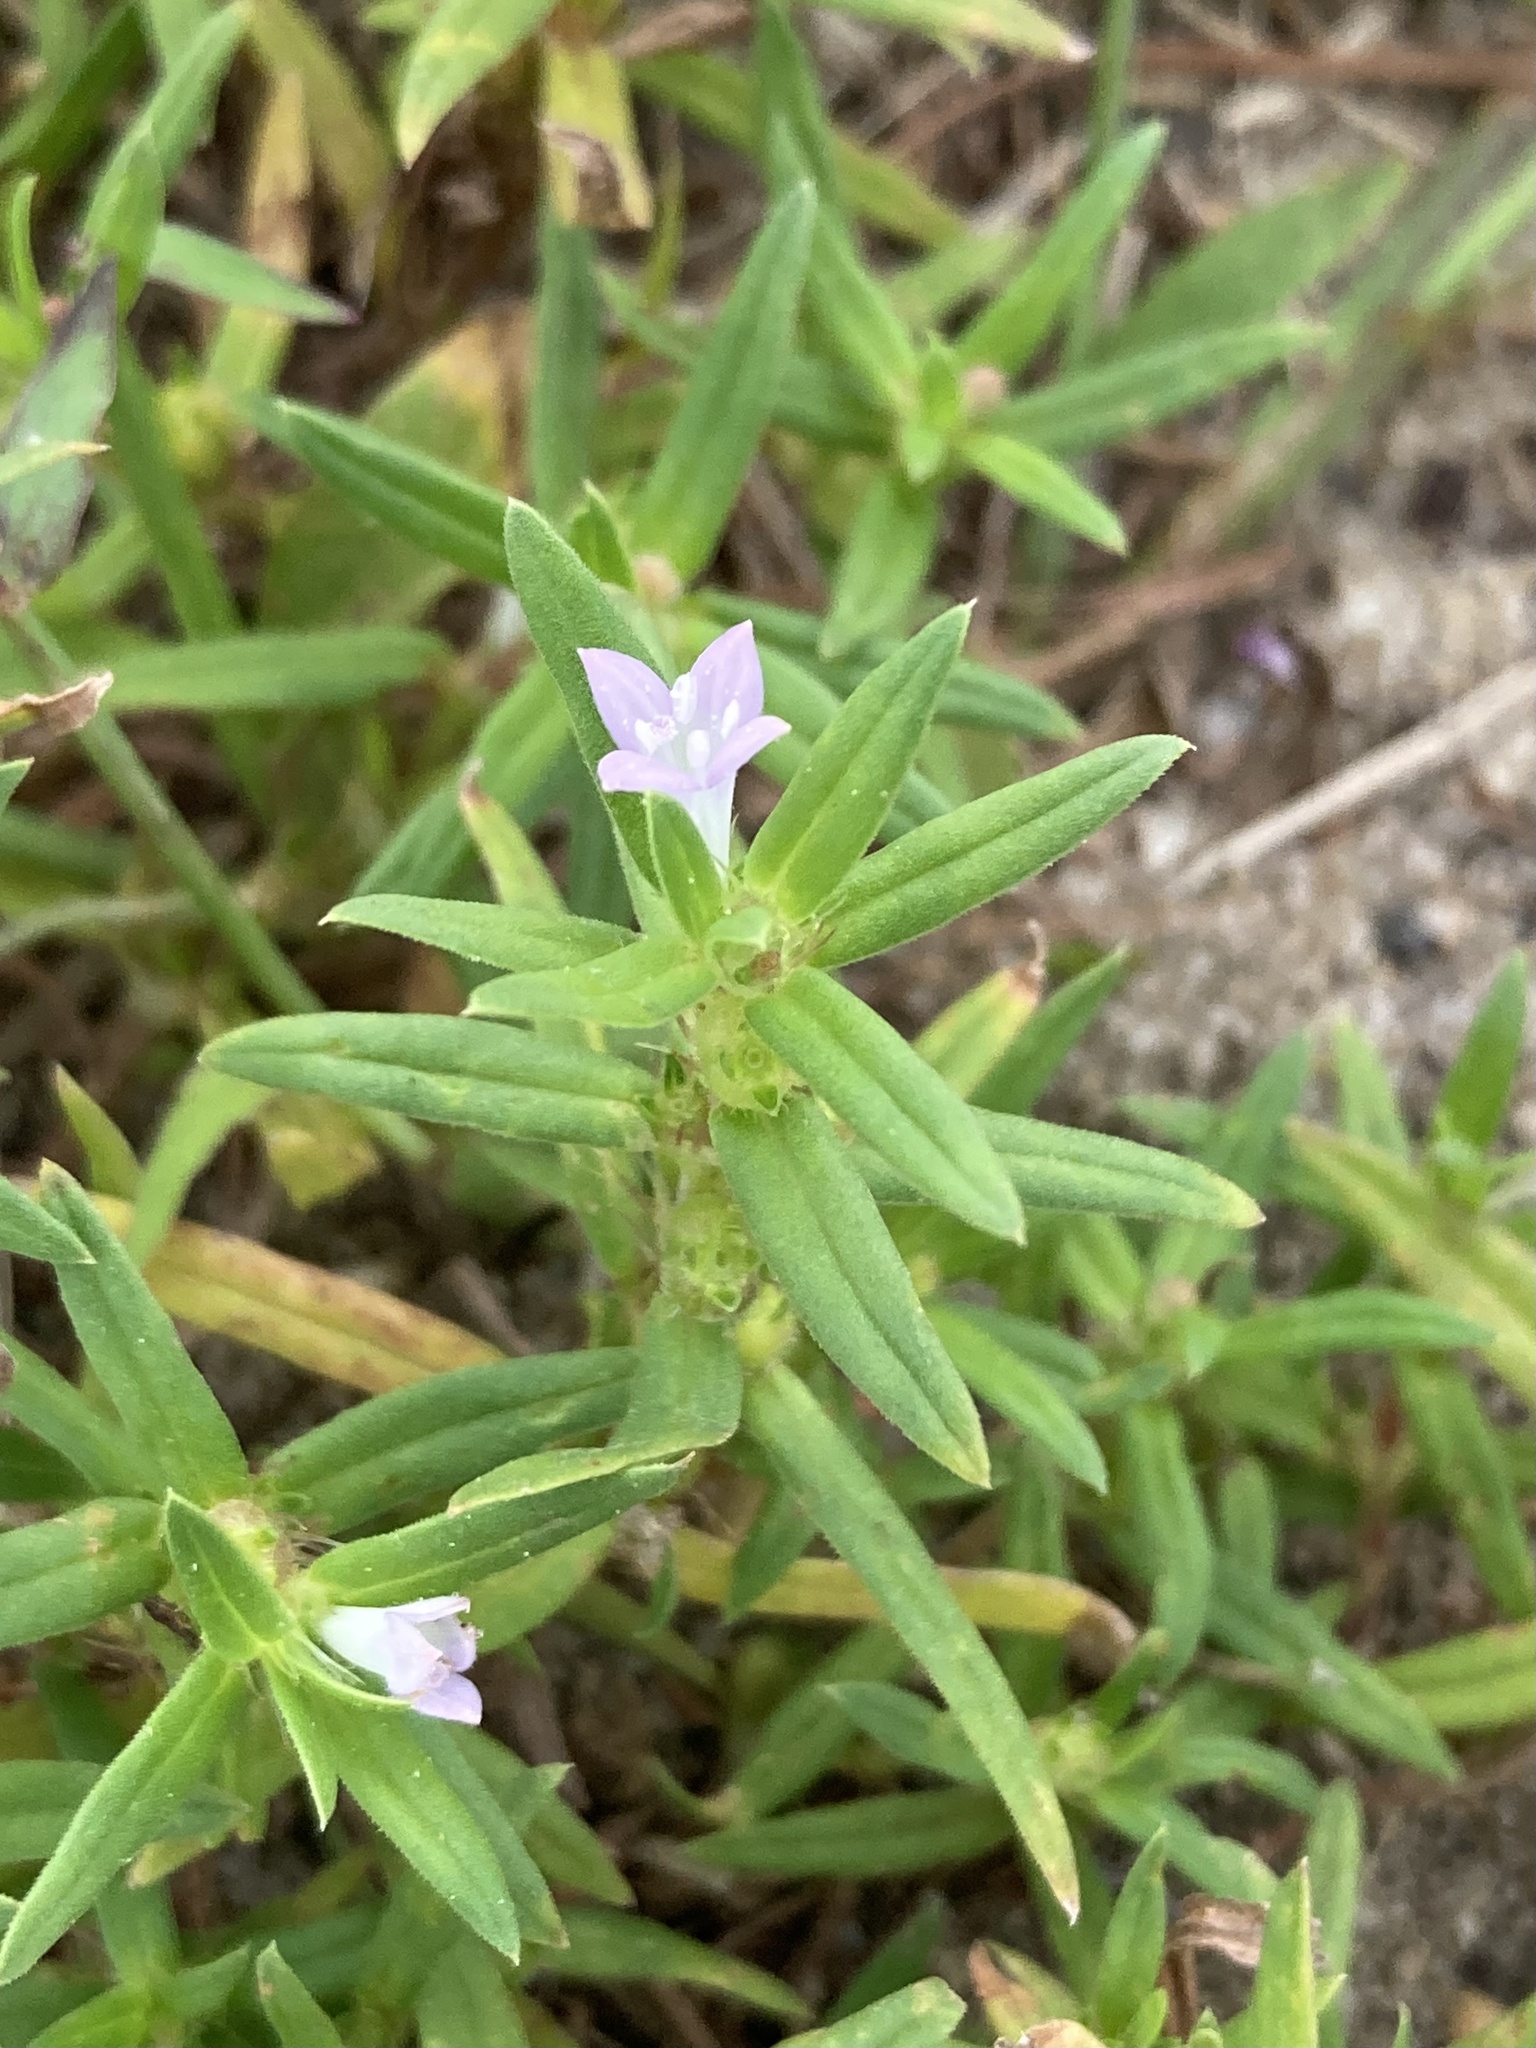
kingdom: Plantae
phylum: Tracheophyta
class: Magnoliopsida
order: Gentianales
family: Rubiaceae
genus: Hexasepalum
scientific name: Hexasepalum teres
